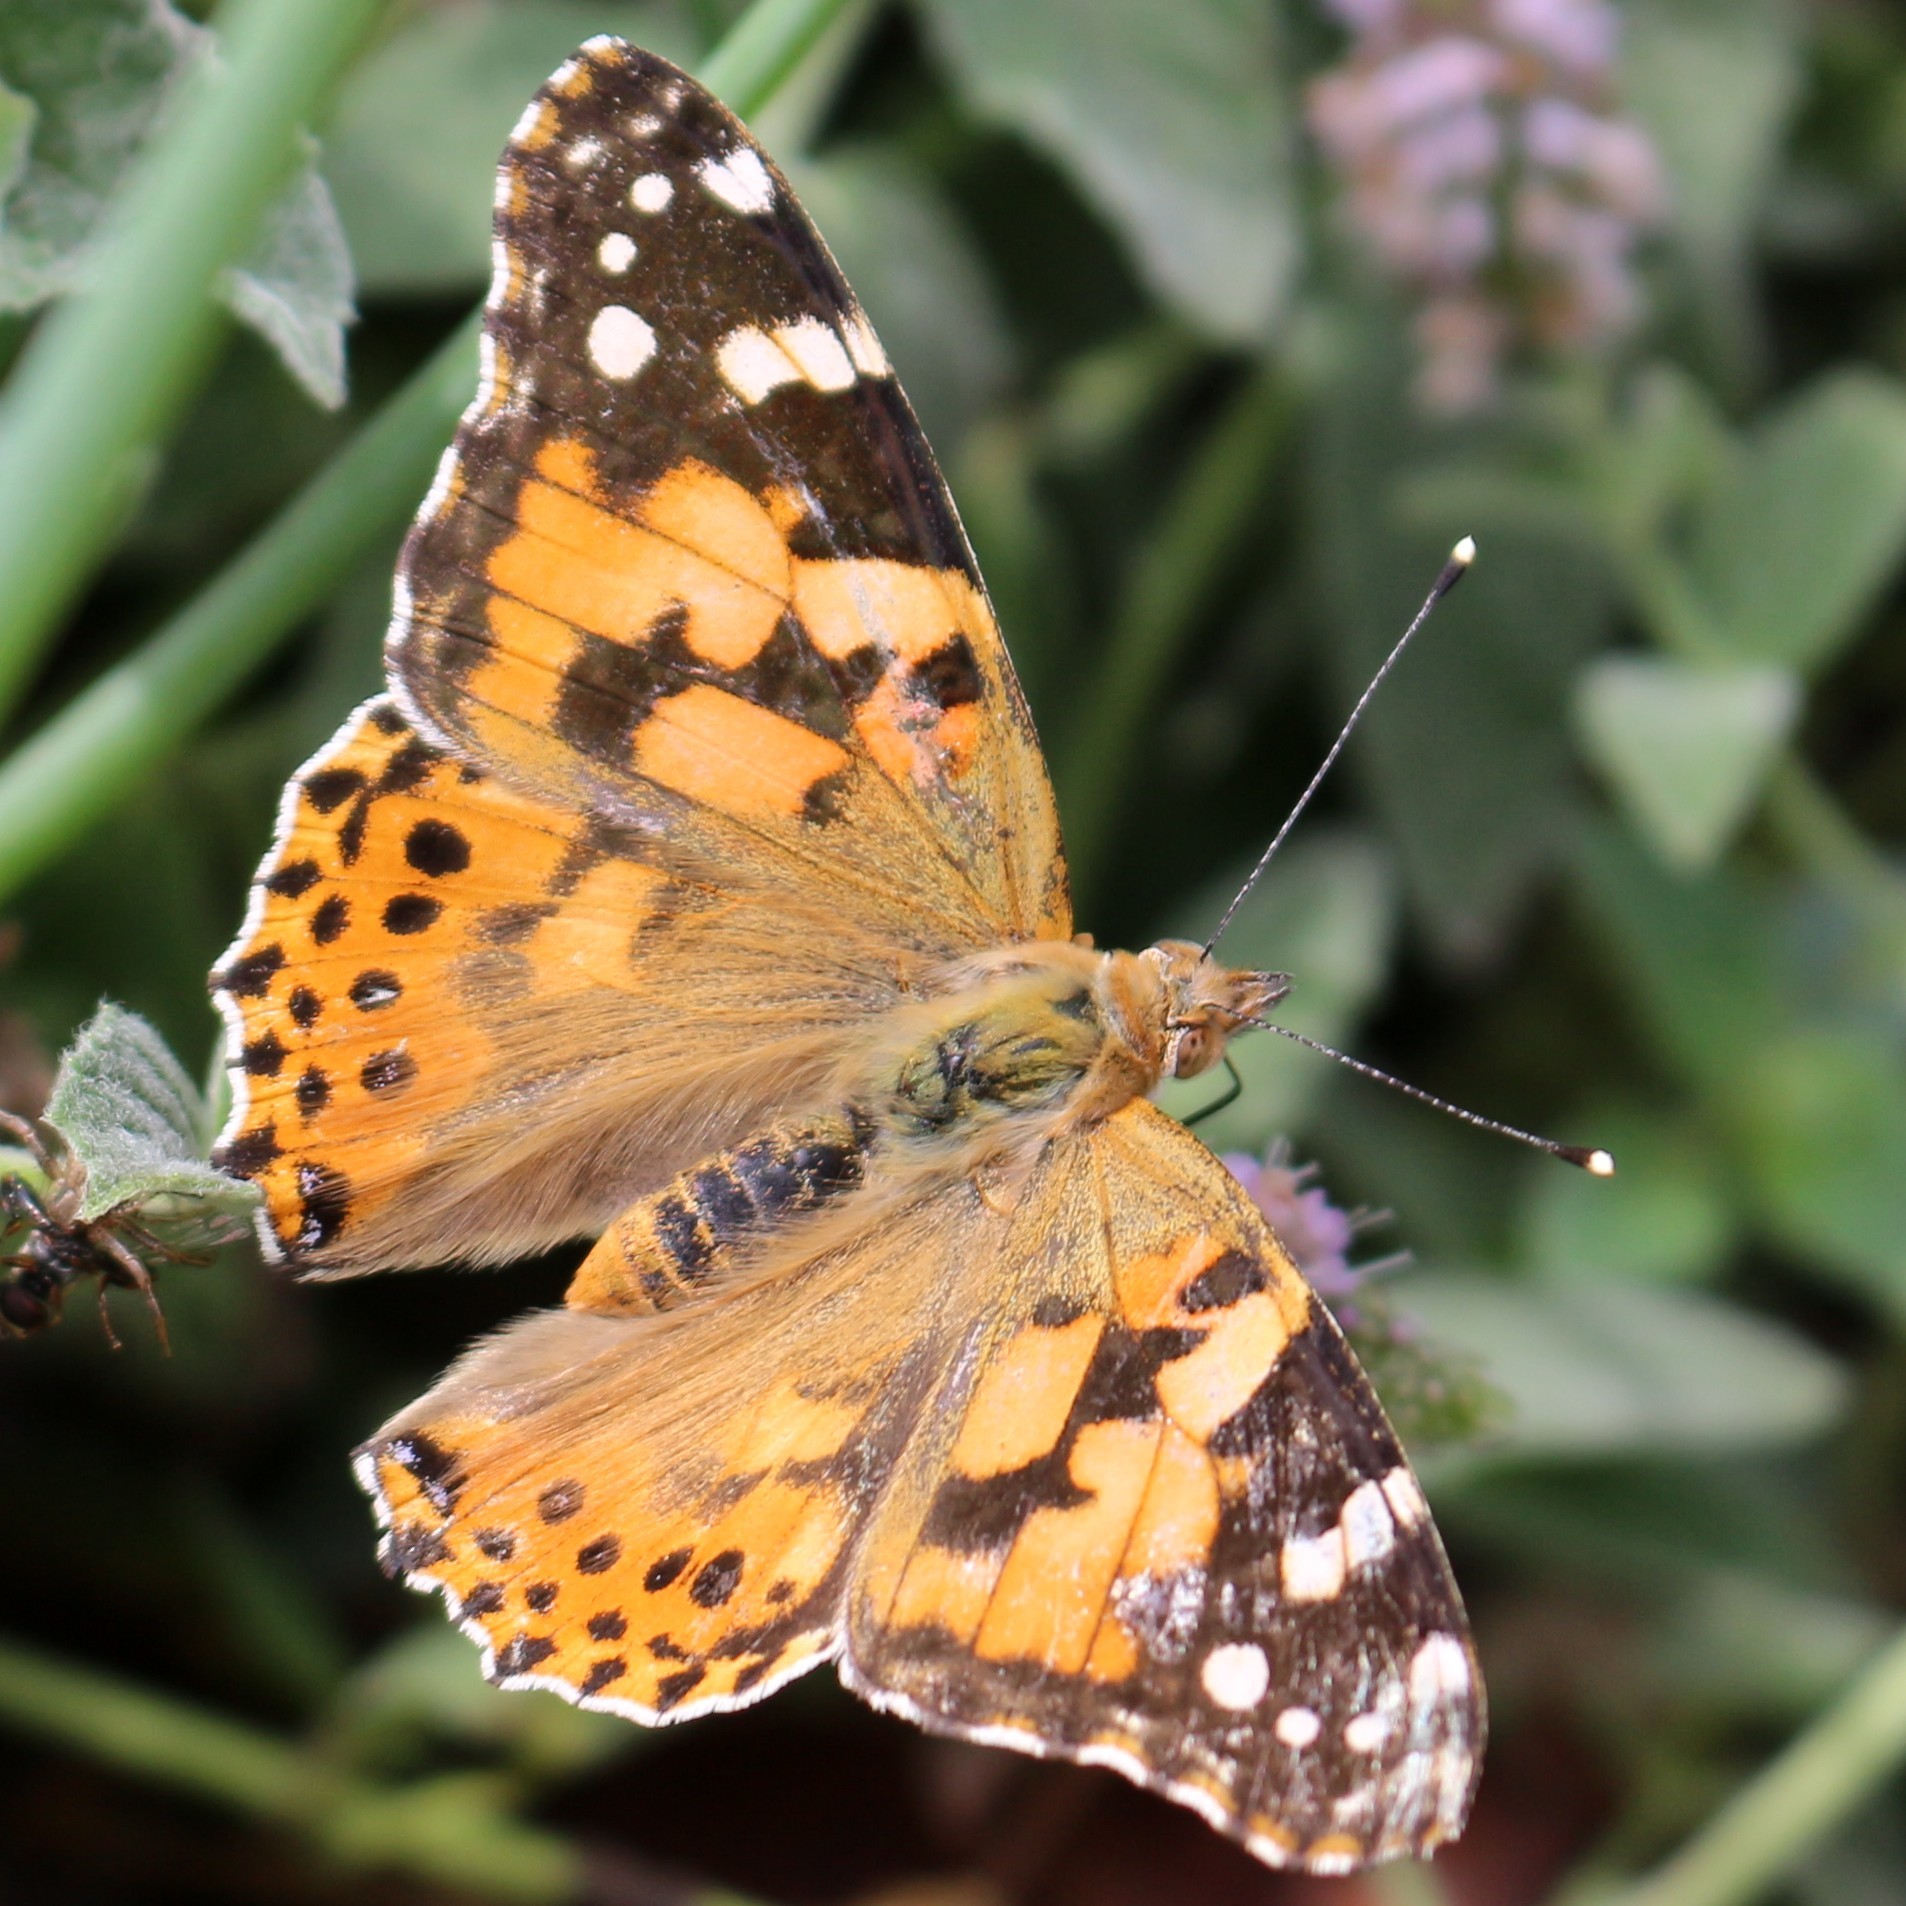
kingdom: Animalia
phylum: Arthropoda
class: Insecta
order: Lepidoptera
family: Nymphalidae
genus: Vanessa
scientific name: Vanessa cardui
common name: Painted lady
